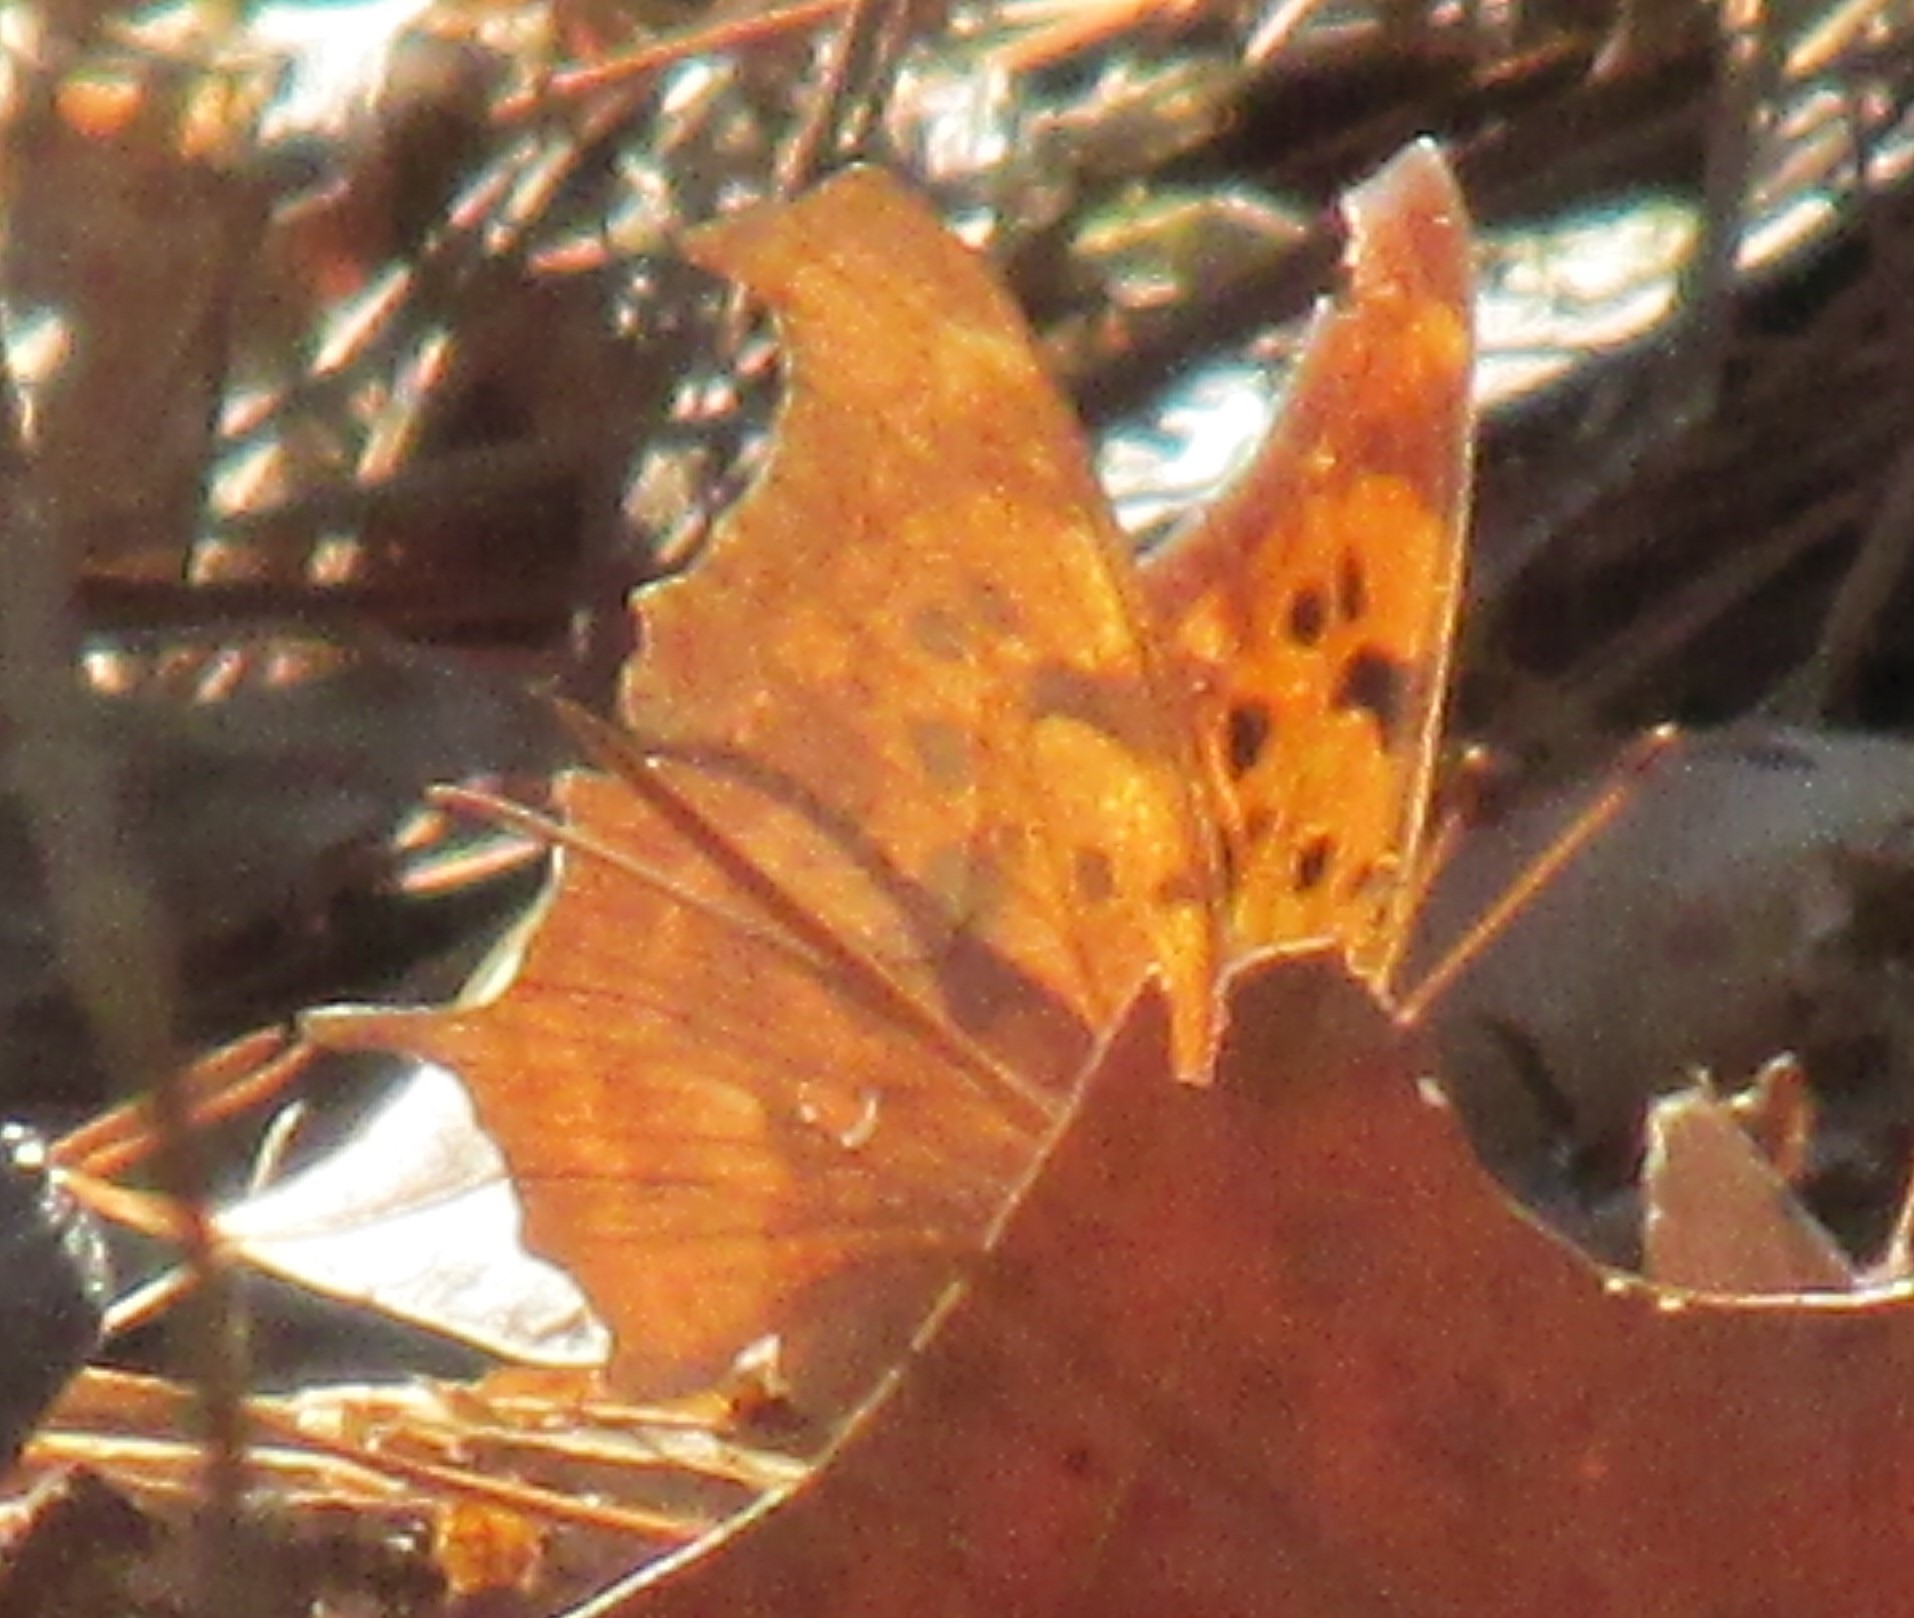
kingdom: Animalia
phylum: Arthropoda
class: Insecta
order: Lepidoptera
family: Nymphalidae
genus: Polygonia
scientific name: Polygonia interrogationis
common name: Question mark
